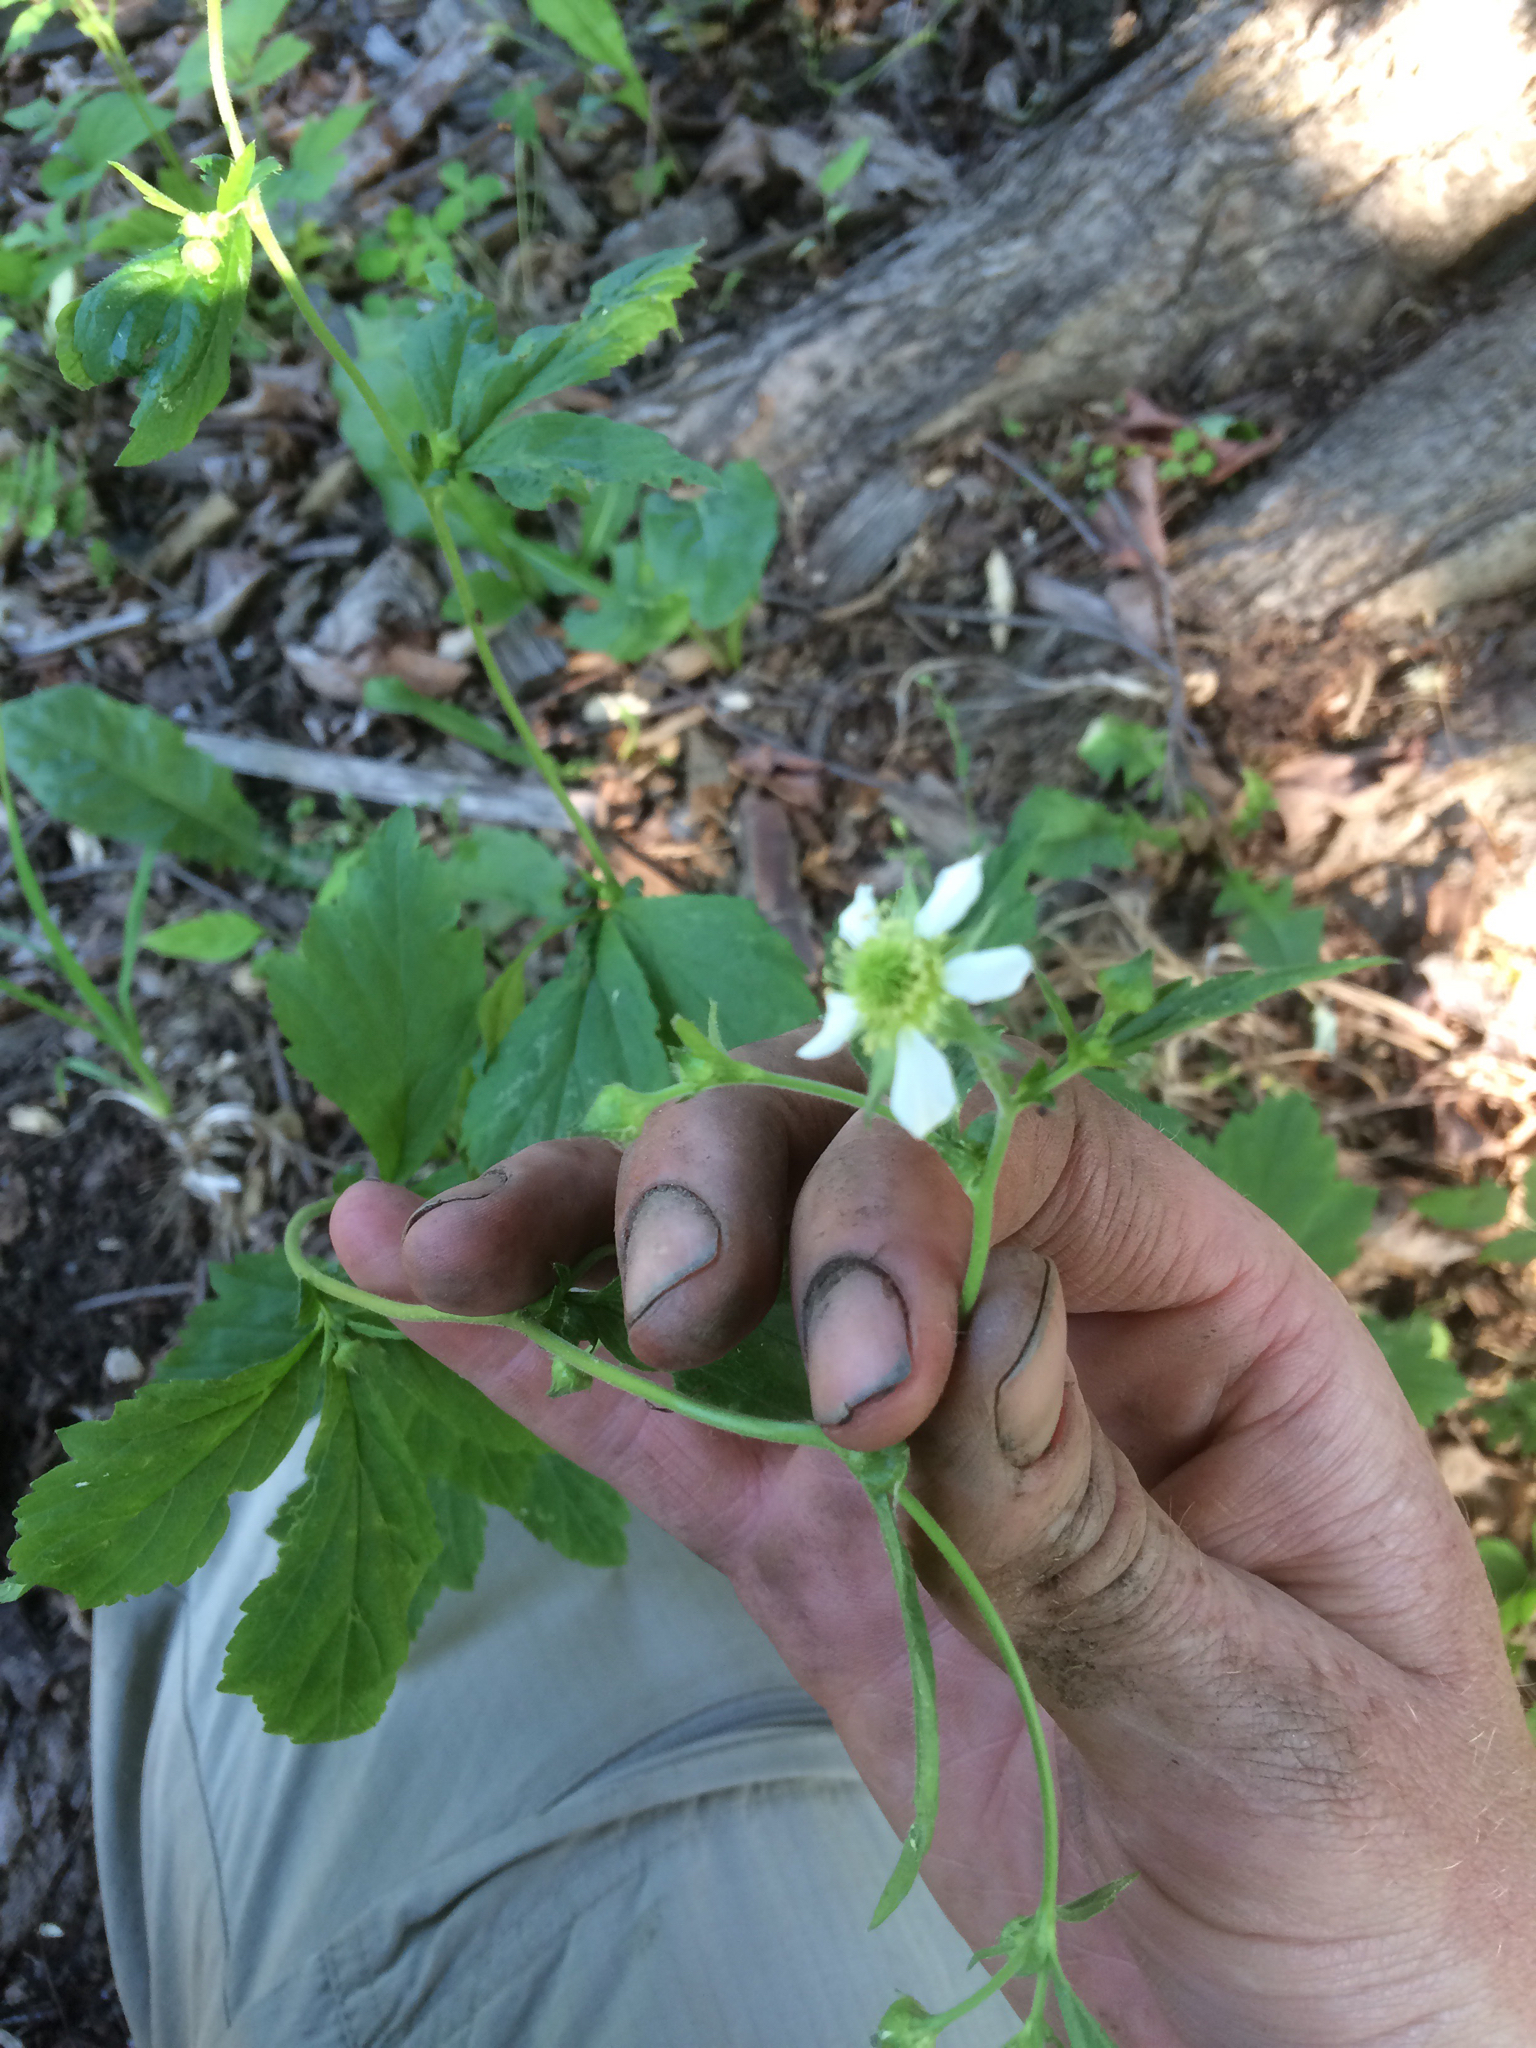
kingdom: Plantae
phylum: Tracheophyta
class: Magnoliopsida
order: Rosales
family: Rosaceae
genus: Geum
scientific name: Geum canadense
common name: White avens
